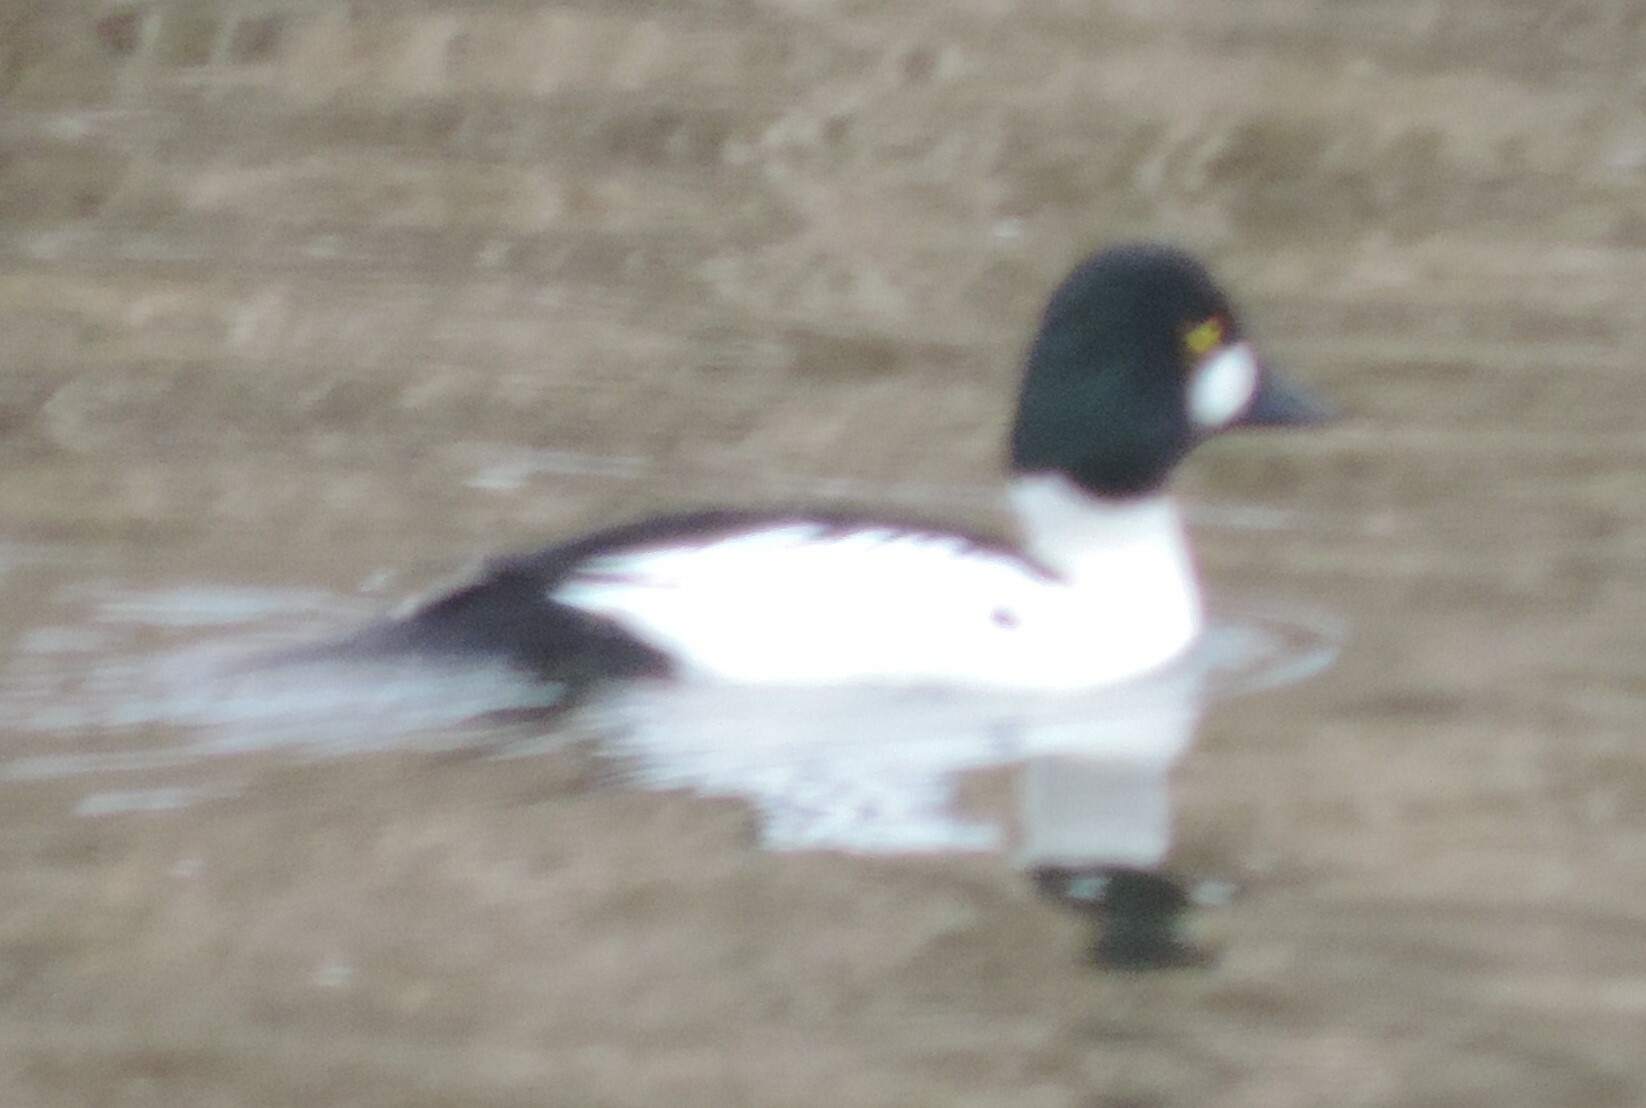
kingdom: Animalia
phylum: Chordata
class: Aves
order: Anseriformes
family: Anatidae
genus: Bucephala
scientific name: Bucephala clangula
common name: Common goldeneye
